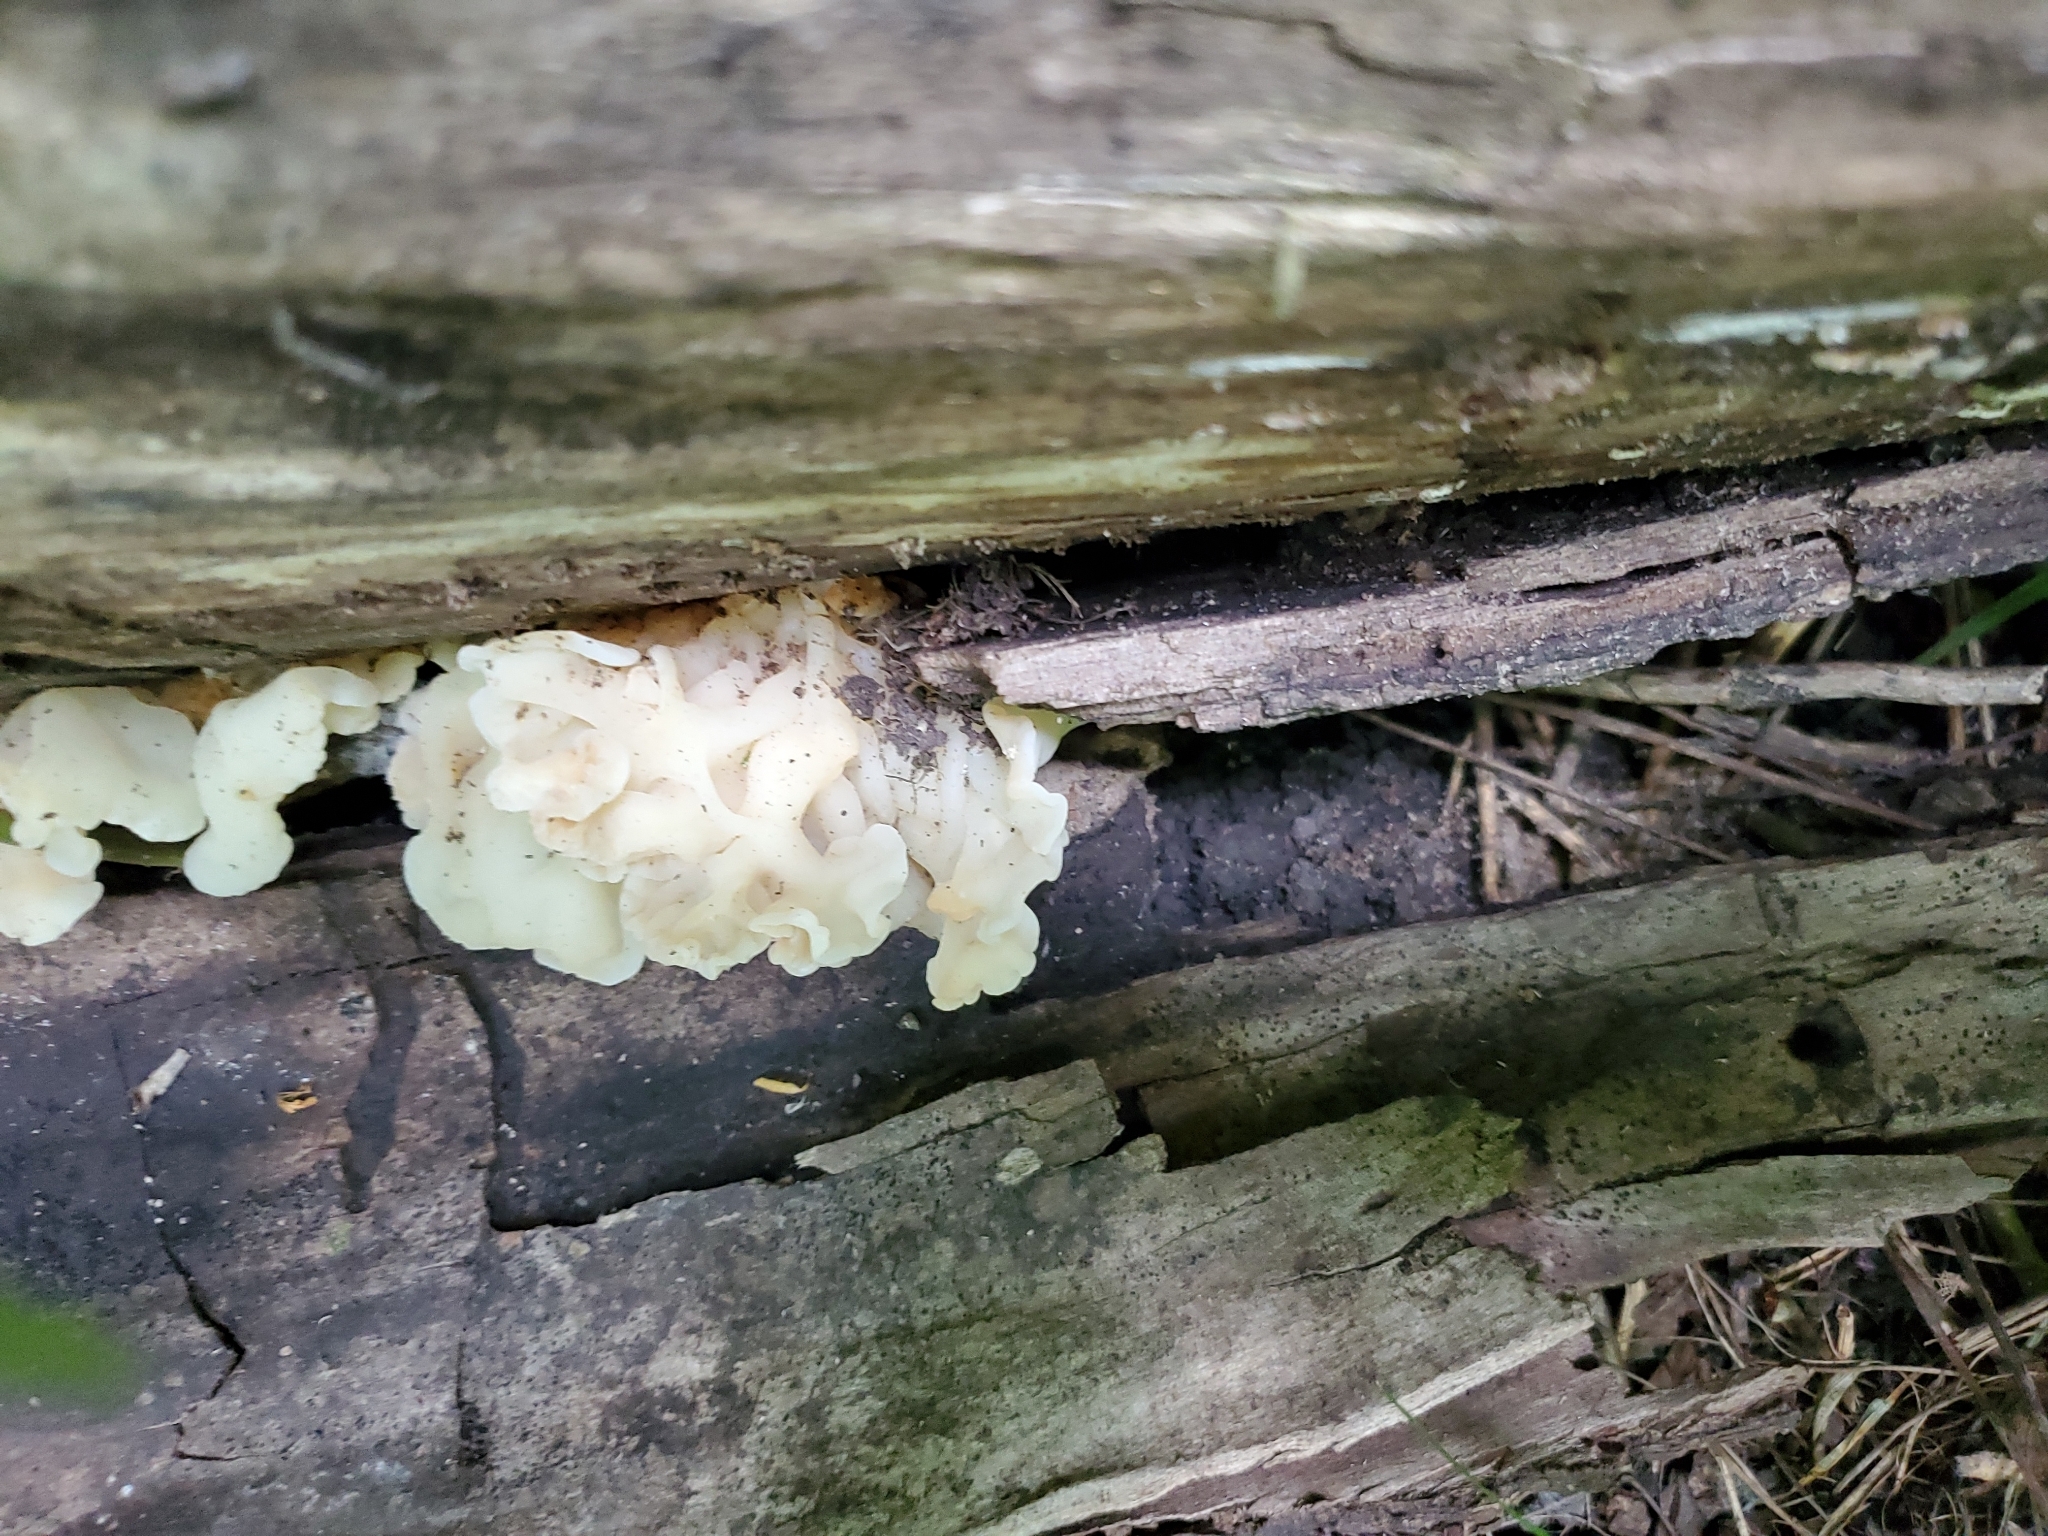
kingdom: Fungi
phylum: Basidiomycota
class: Agaricomycetes
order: Auriculariales
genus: Ductifera
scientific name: Ductifera pululahuana
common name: White jelly fungus
